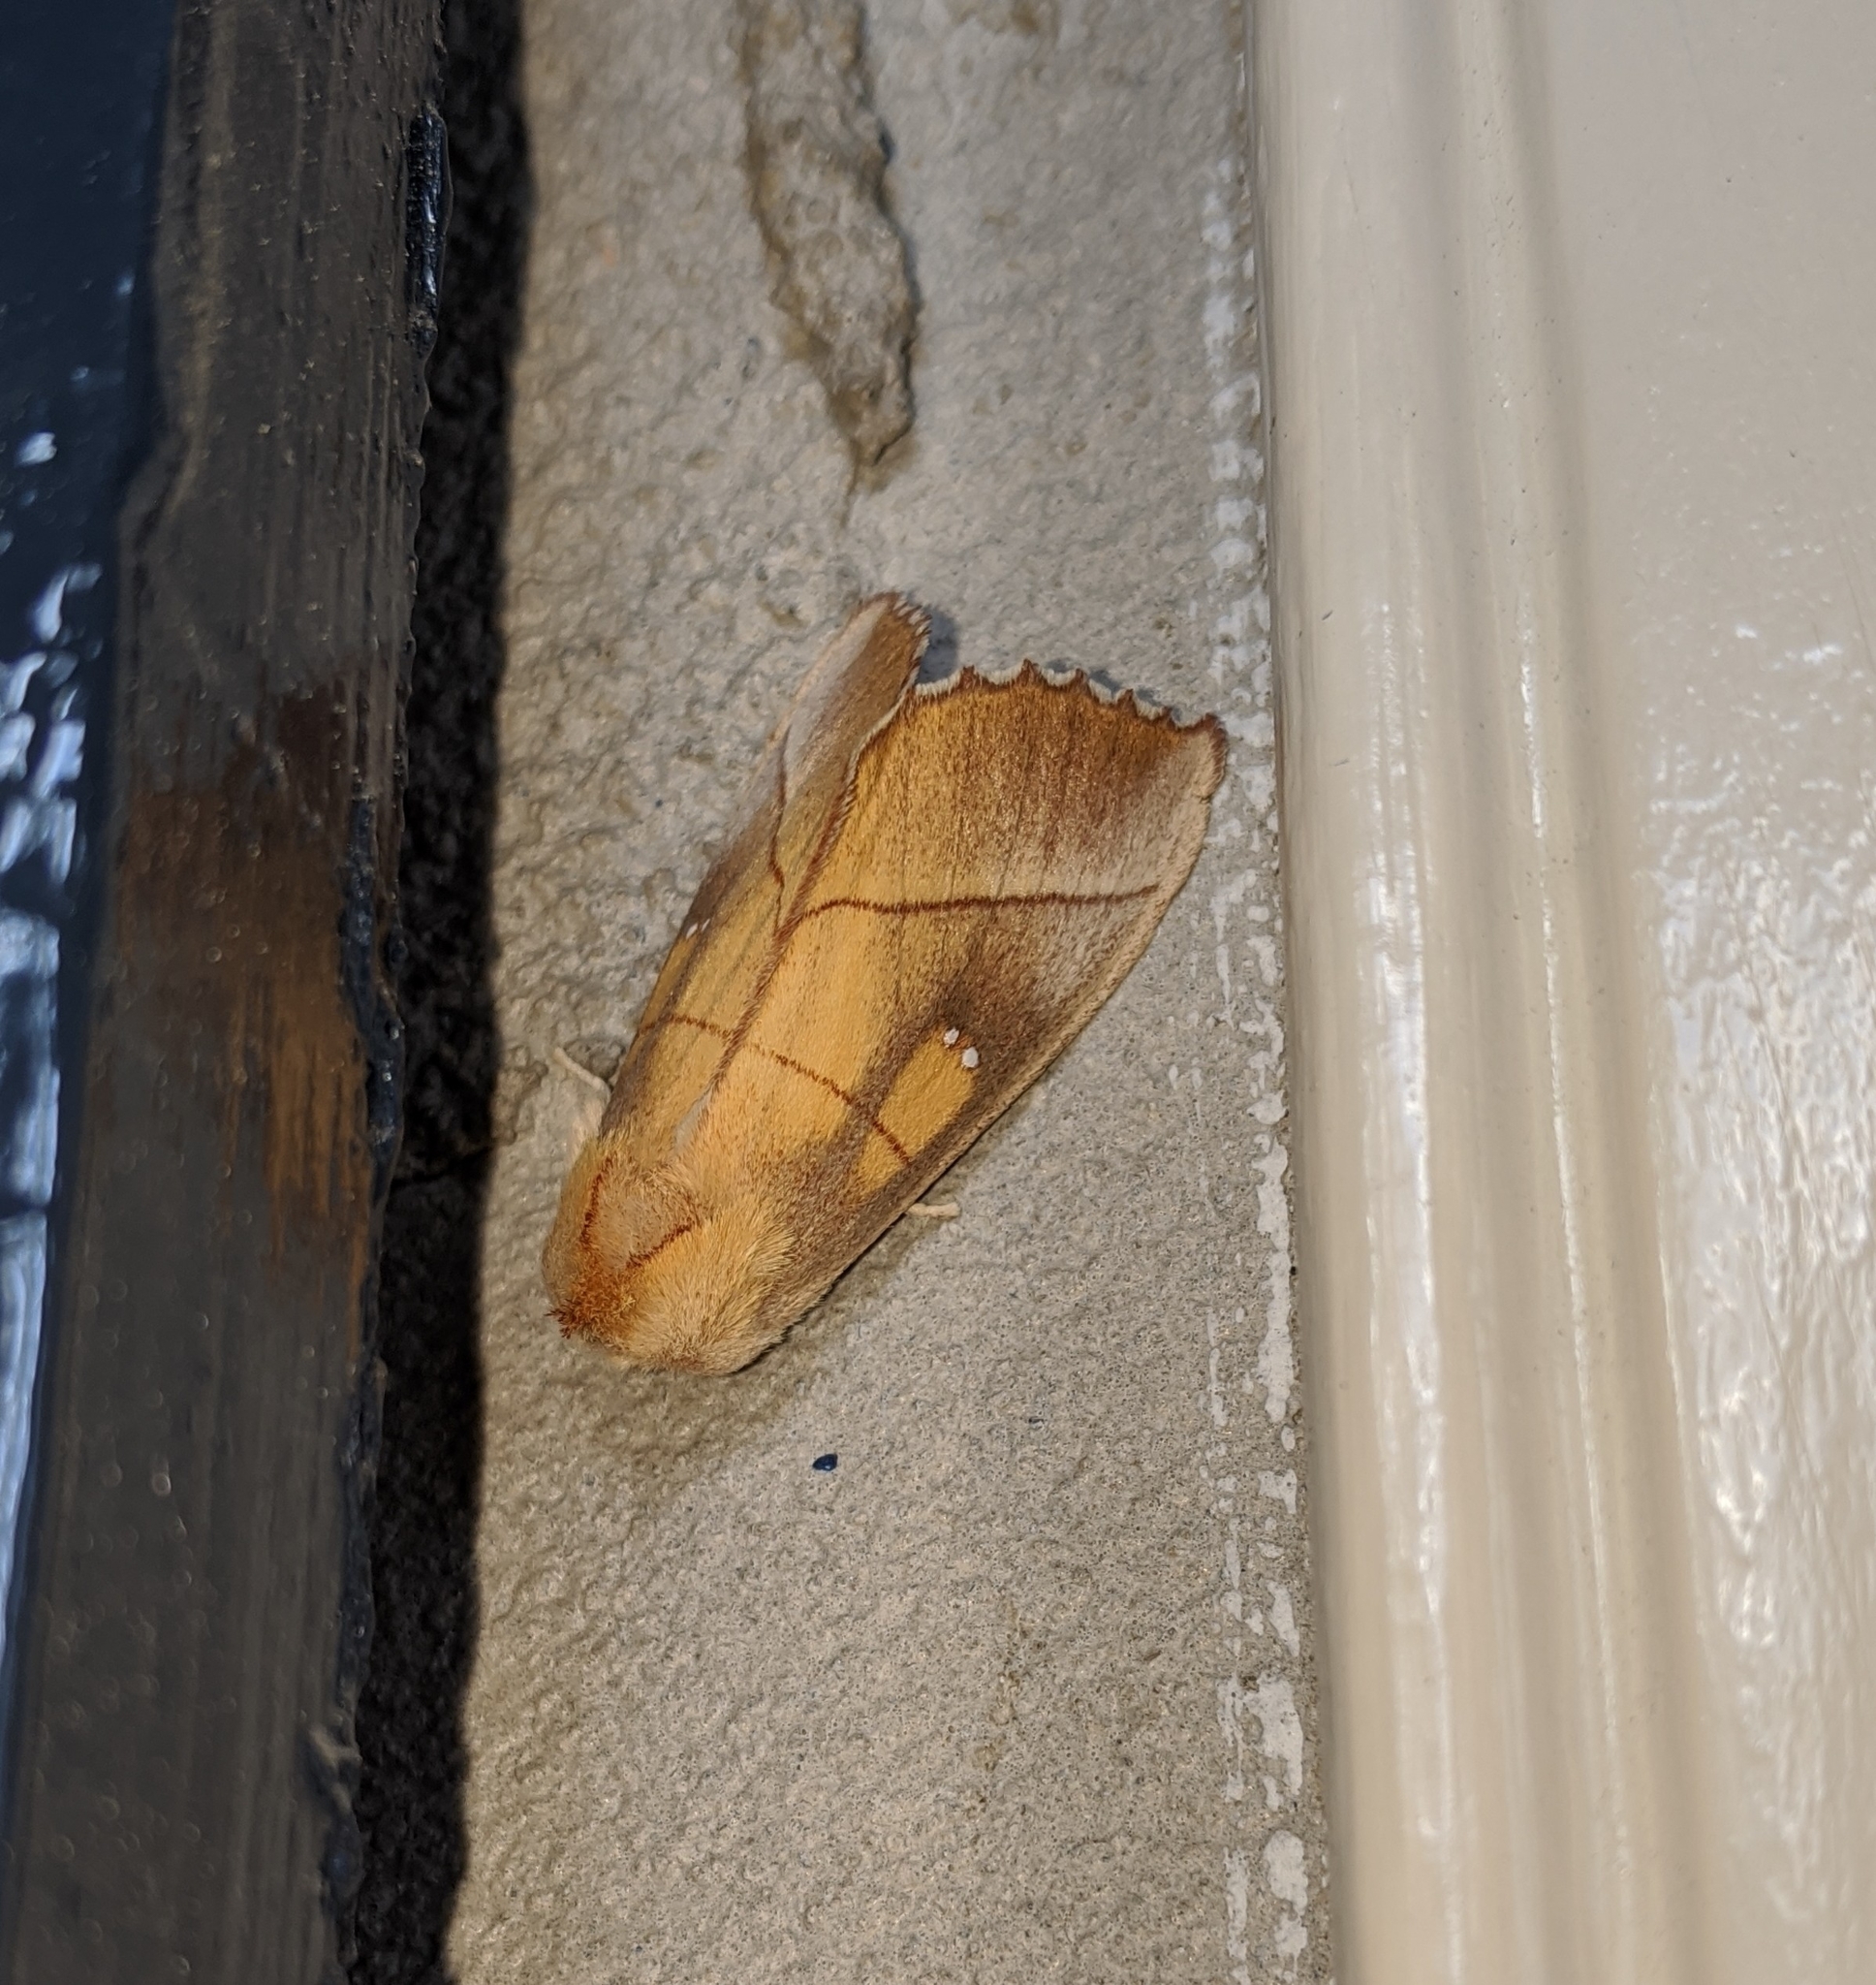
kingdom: Animalia
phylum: Arthropoda
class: Insecta
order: Lepidoptera
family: Notodontidae
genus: Nadata
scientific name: Nadata gibbosa
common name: White-dotted prominent
